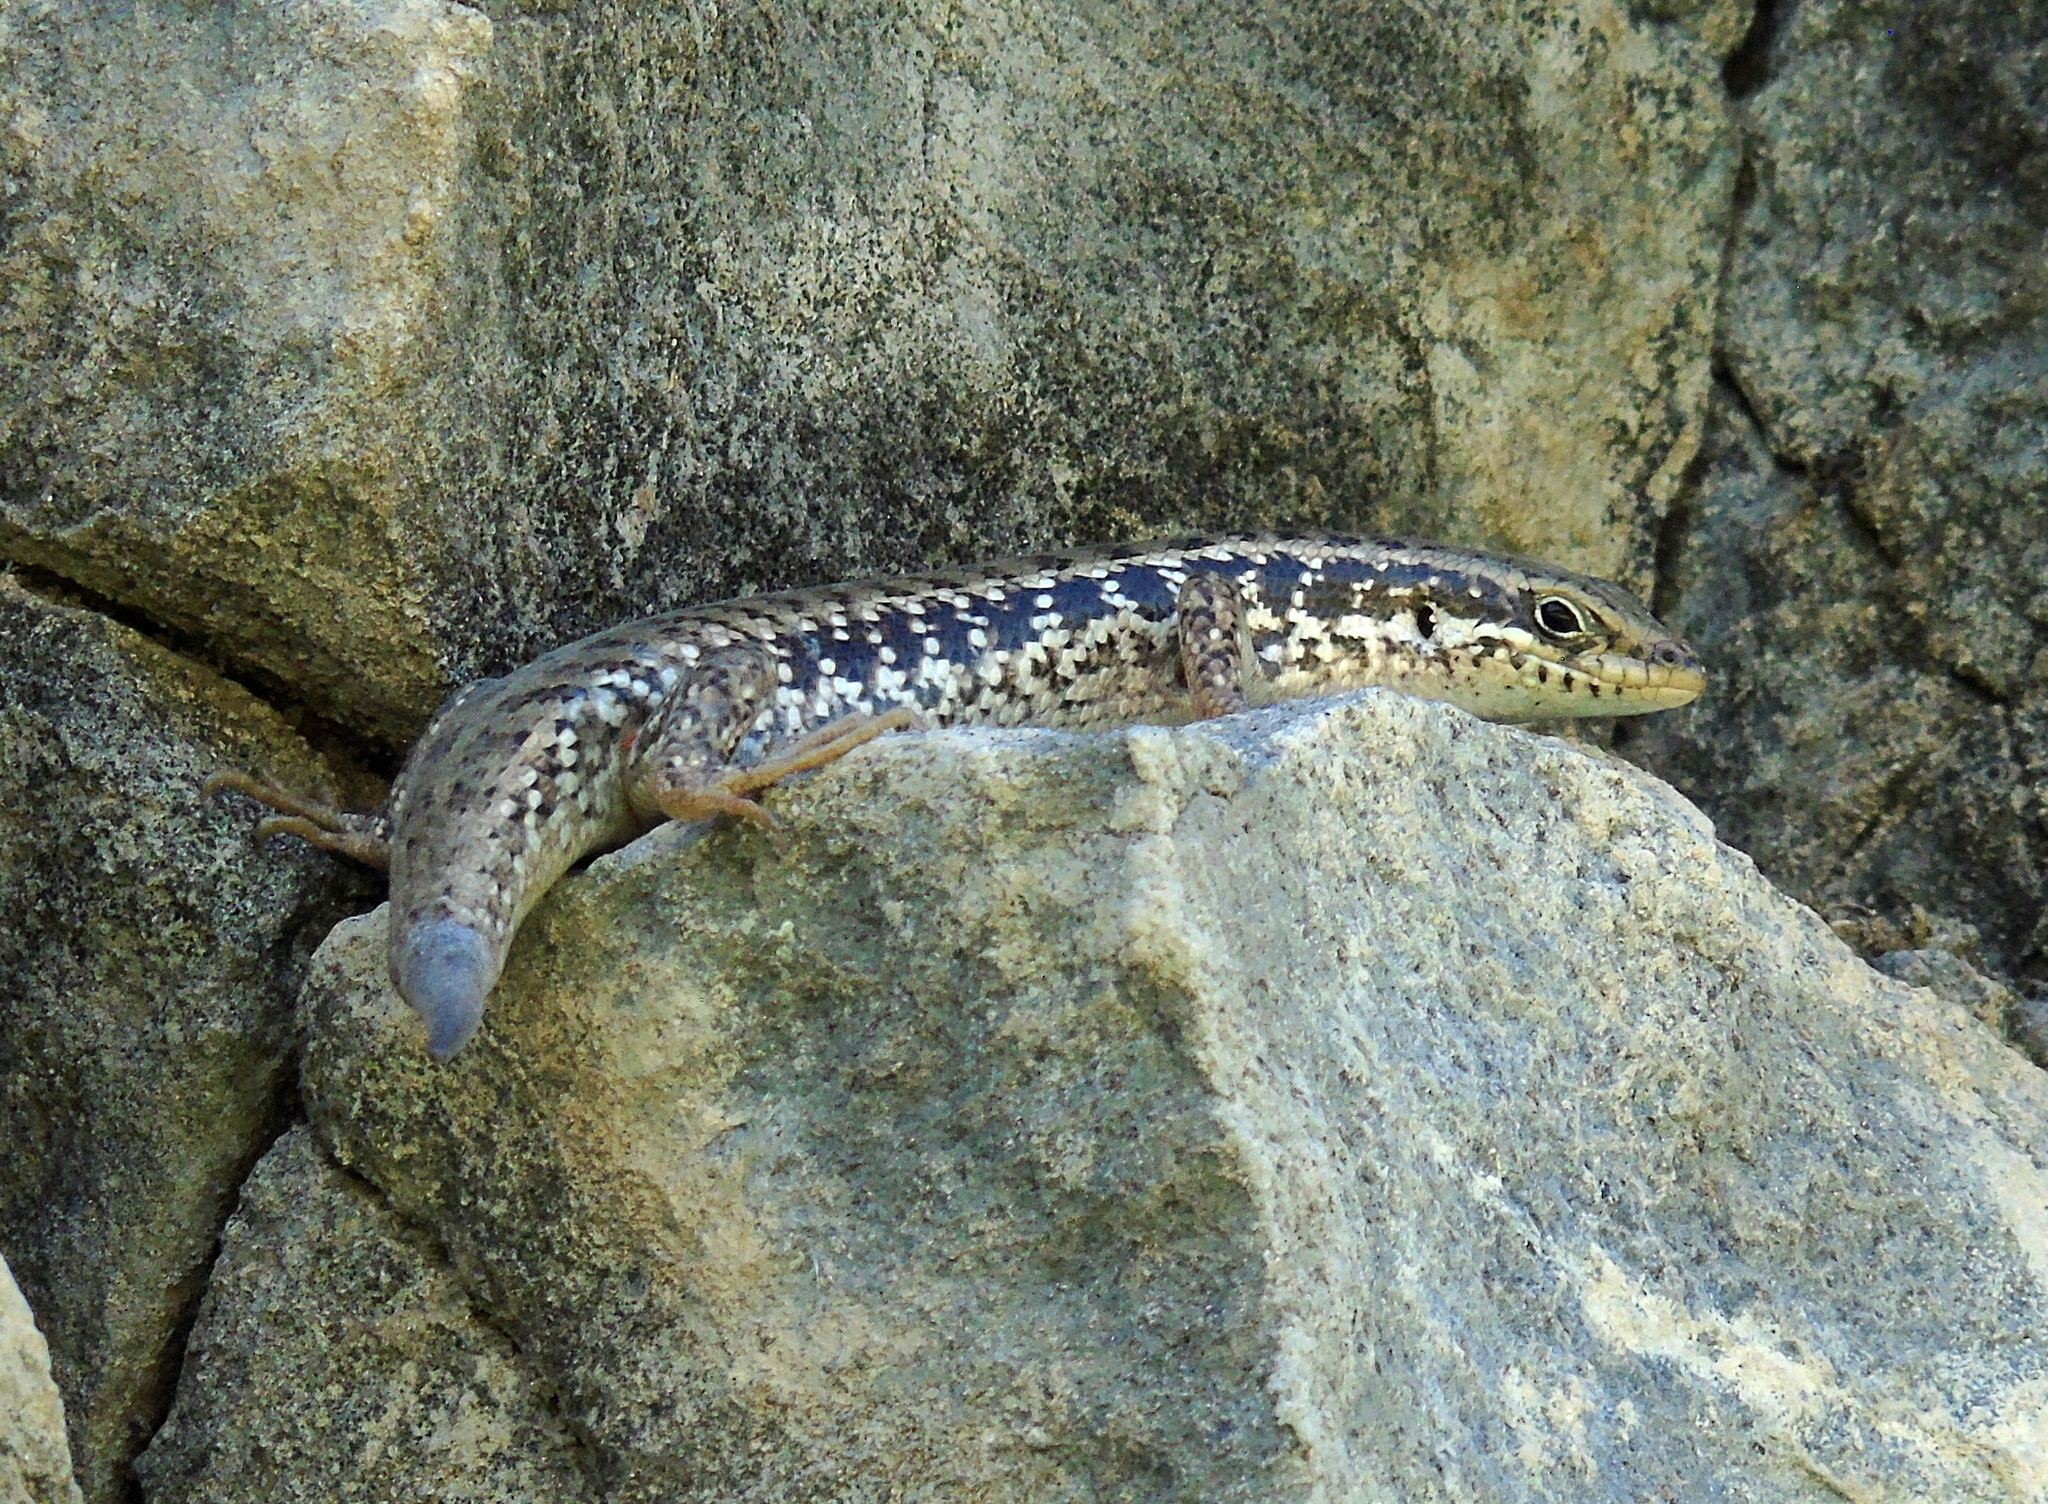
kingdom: Animalia
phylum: Chordata
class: Squamata
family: Scincidae
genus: Heremites
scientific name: Heremites auratus
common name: Golden grass mabuya
